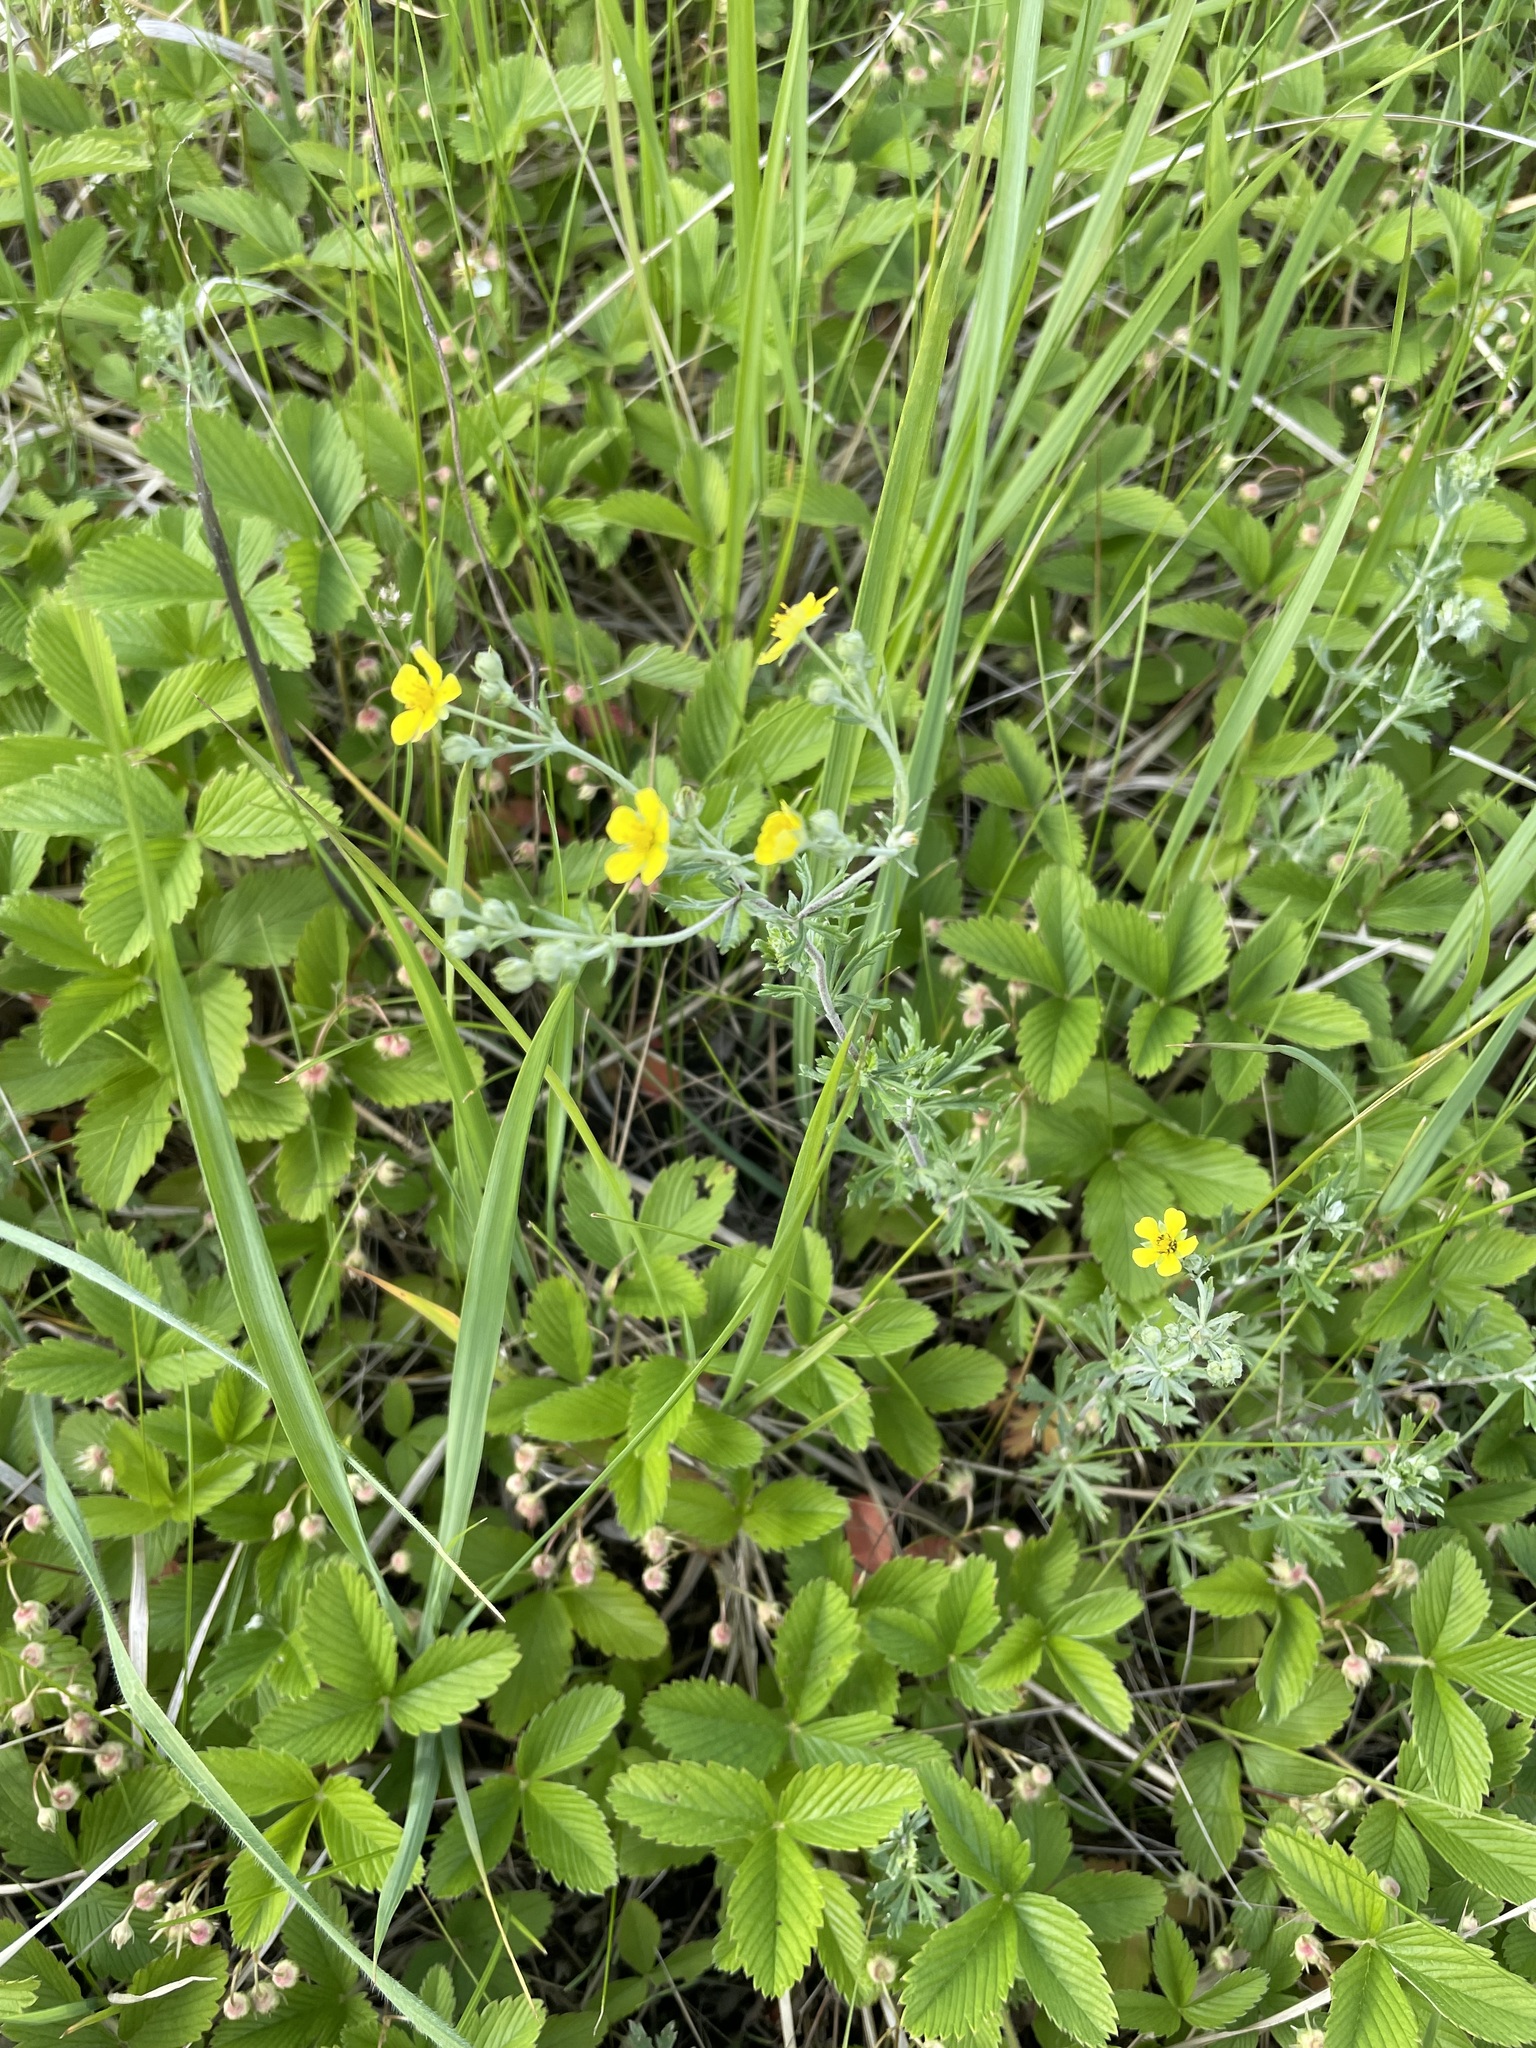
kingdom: Plantae
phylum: Tracheophyta
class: Magnoliopsida
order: Rosales
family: Rosaceae
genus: Potentilla
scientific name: Potentilla argentea
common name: Hoary cinquefoil
